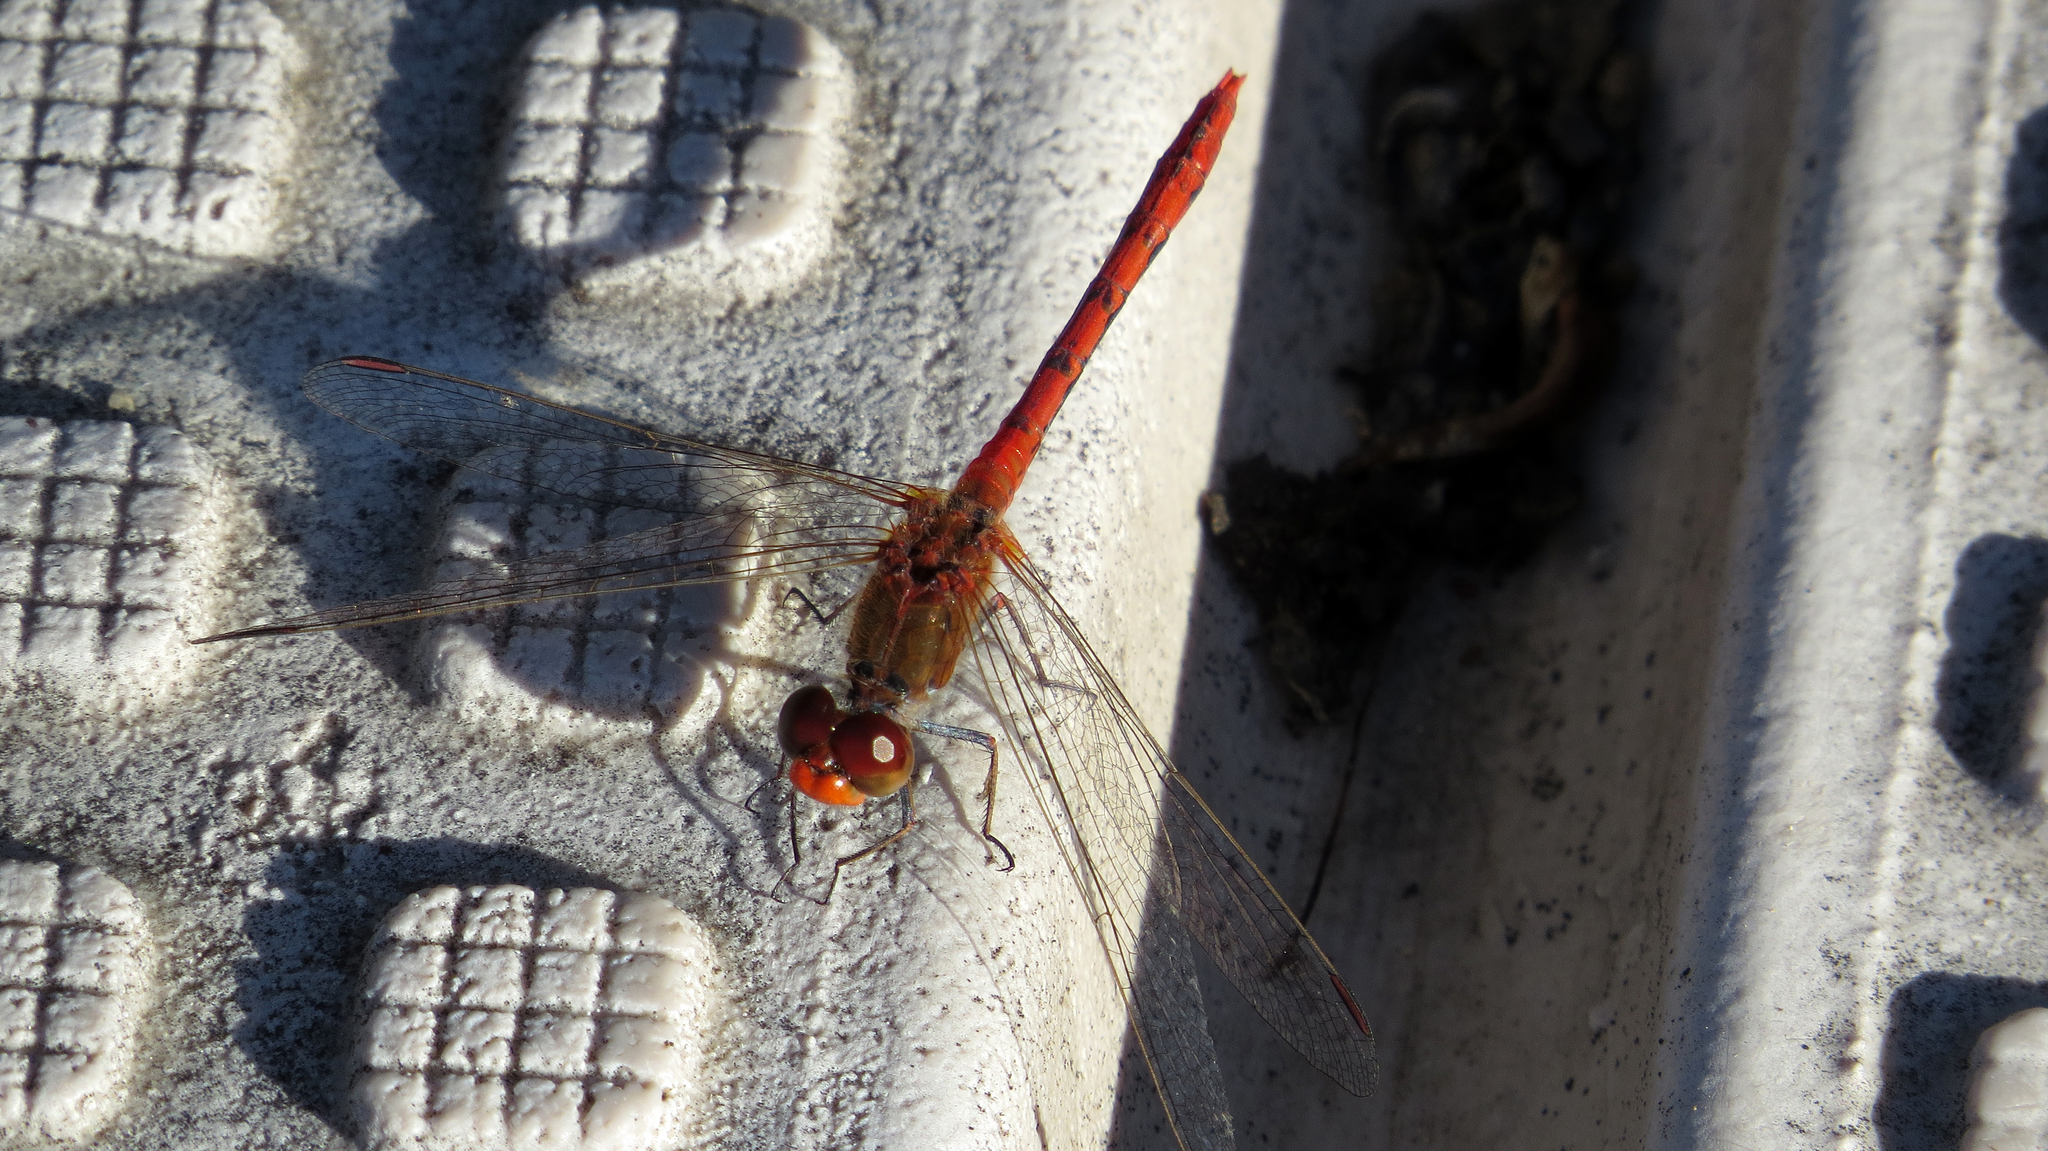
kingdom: Animalia
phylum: Arthropoda
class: Insecta
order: Odonata
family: Libellulidae
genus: Diplacodes
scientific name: Diplacodes bipunctata
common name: Red percher dragonfly
